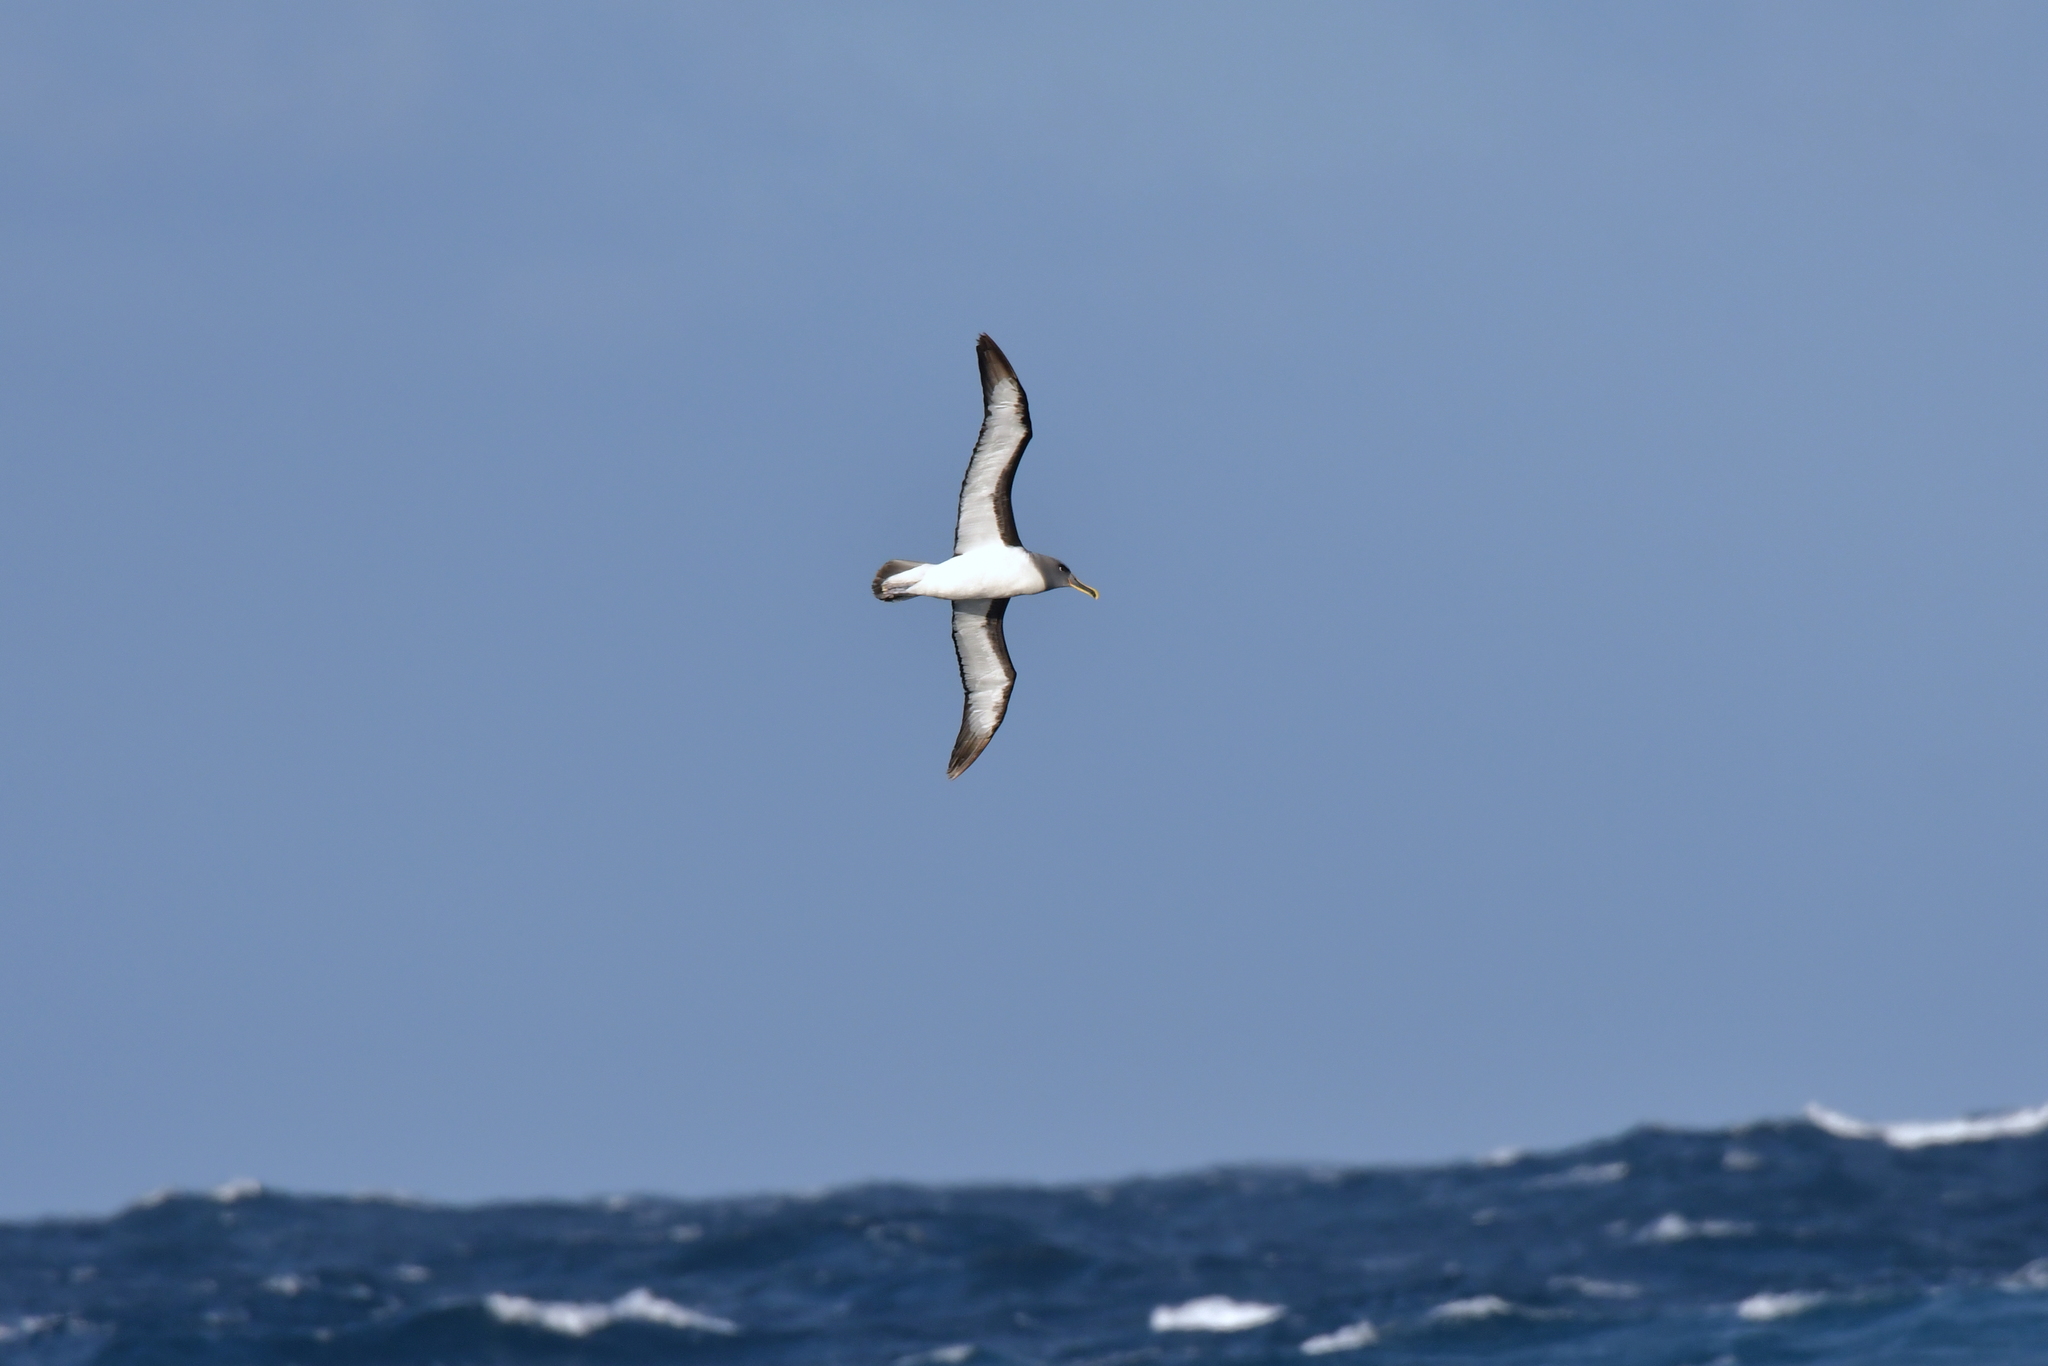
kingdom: Animalia
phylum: Chordata
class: Aves
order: Procellariiformes
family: Diomedeidae
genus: Thalassarche
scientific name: Thalassarche bulleri
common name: Buller's albatross
